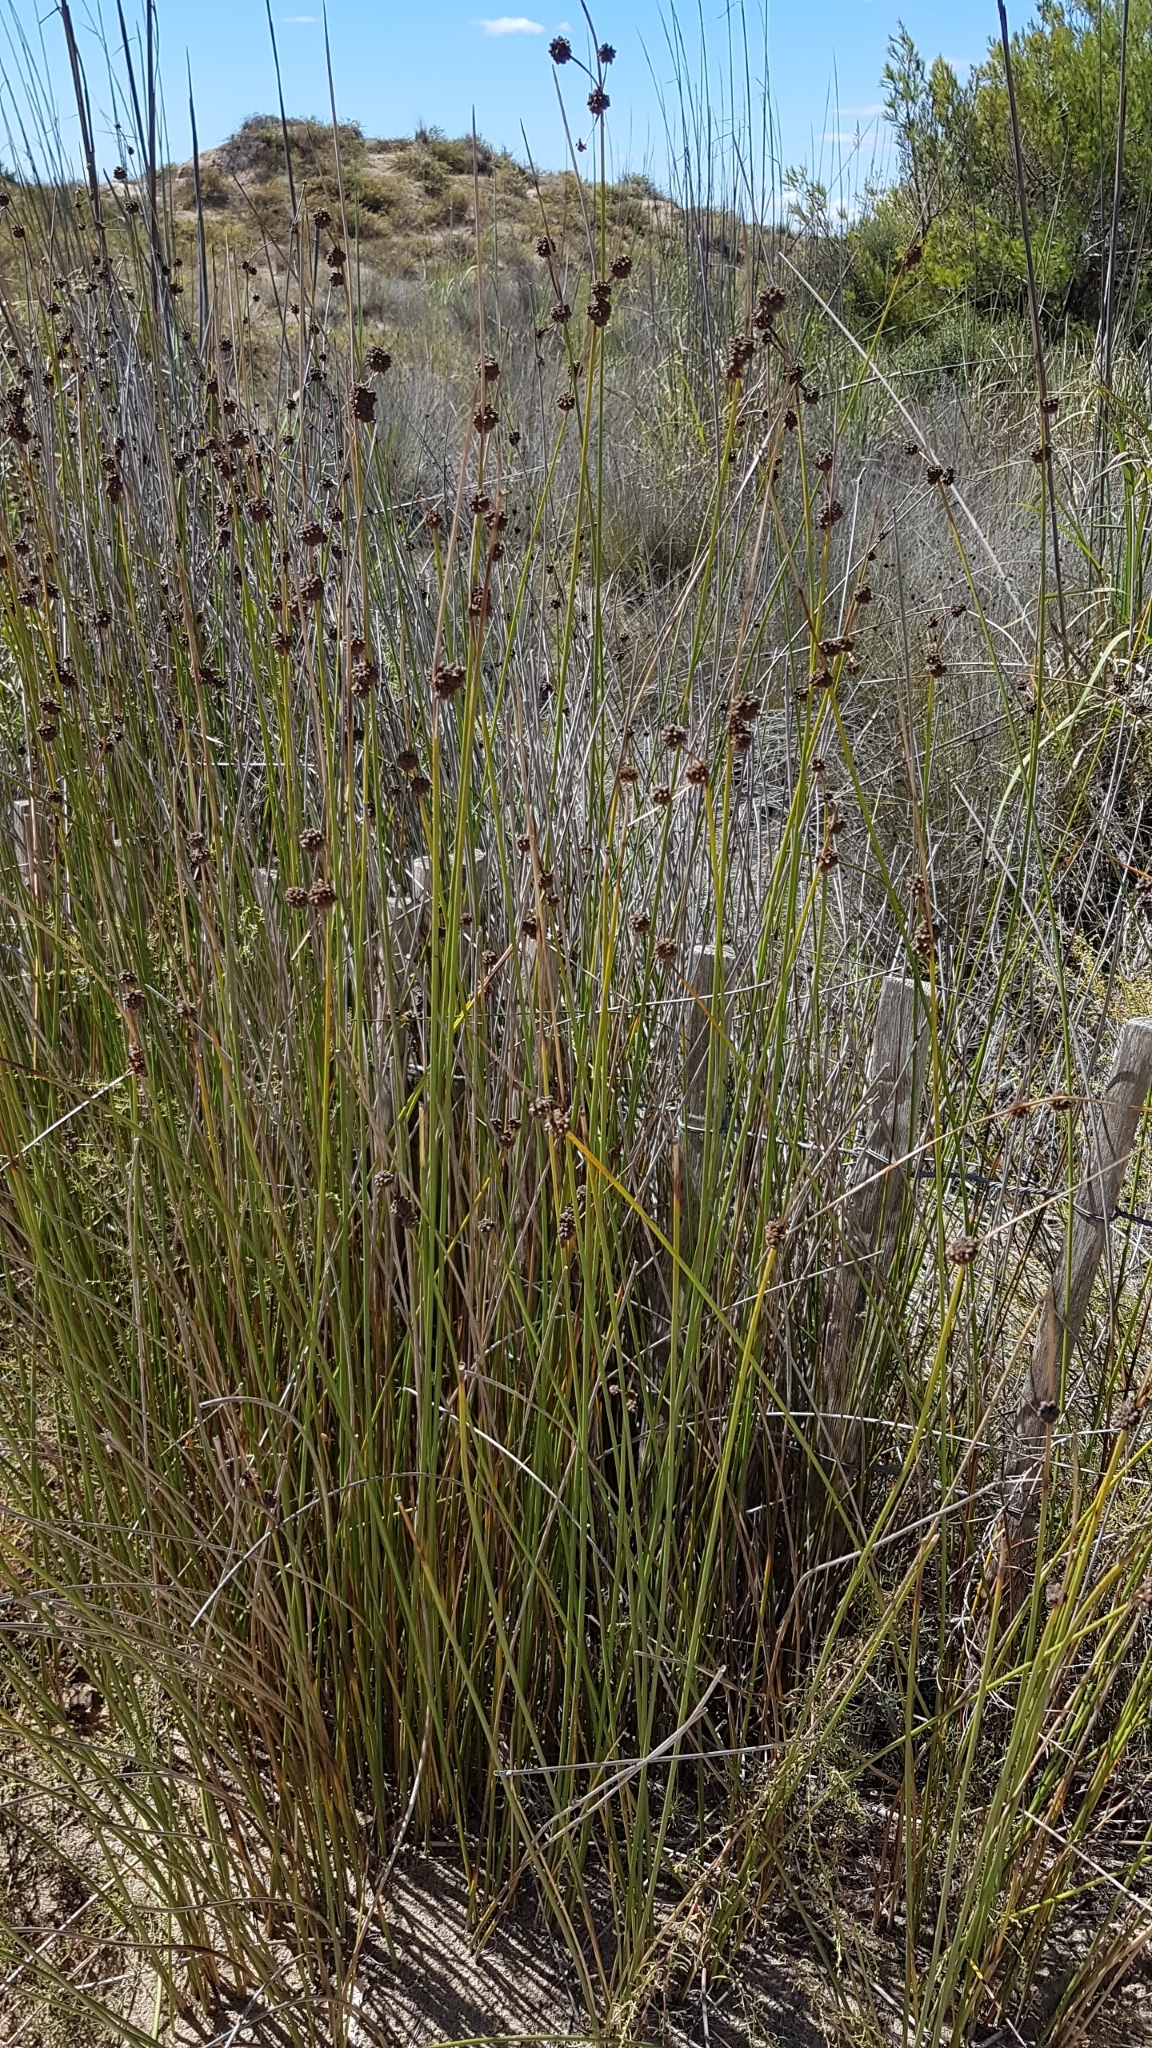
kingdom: Plantae
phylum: Tracheophyta
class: Liliopsida
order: Poales
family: Cyperaceae
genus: Scirpoides
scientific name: Scirpoides holoschoenus
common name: Round-headed club-rush
